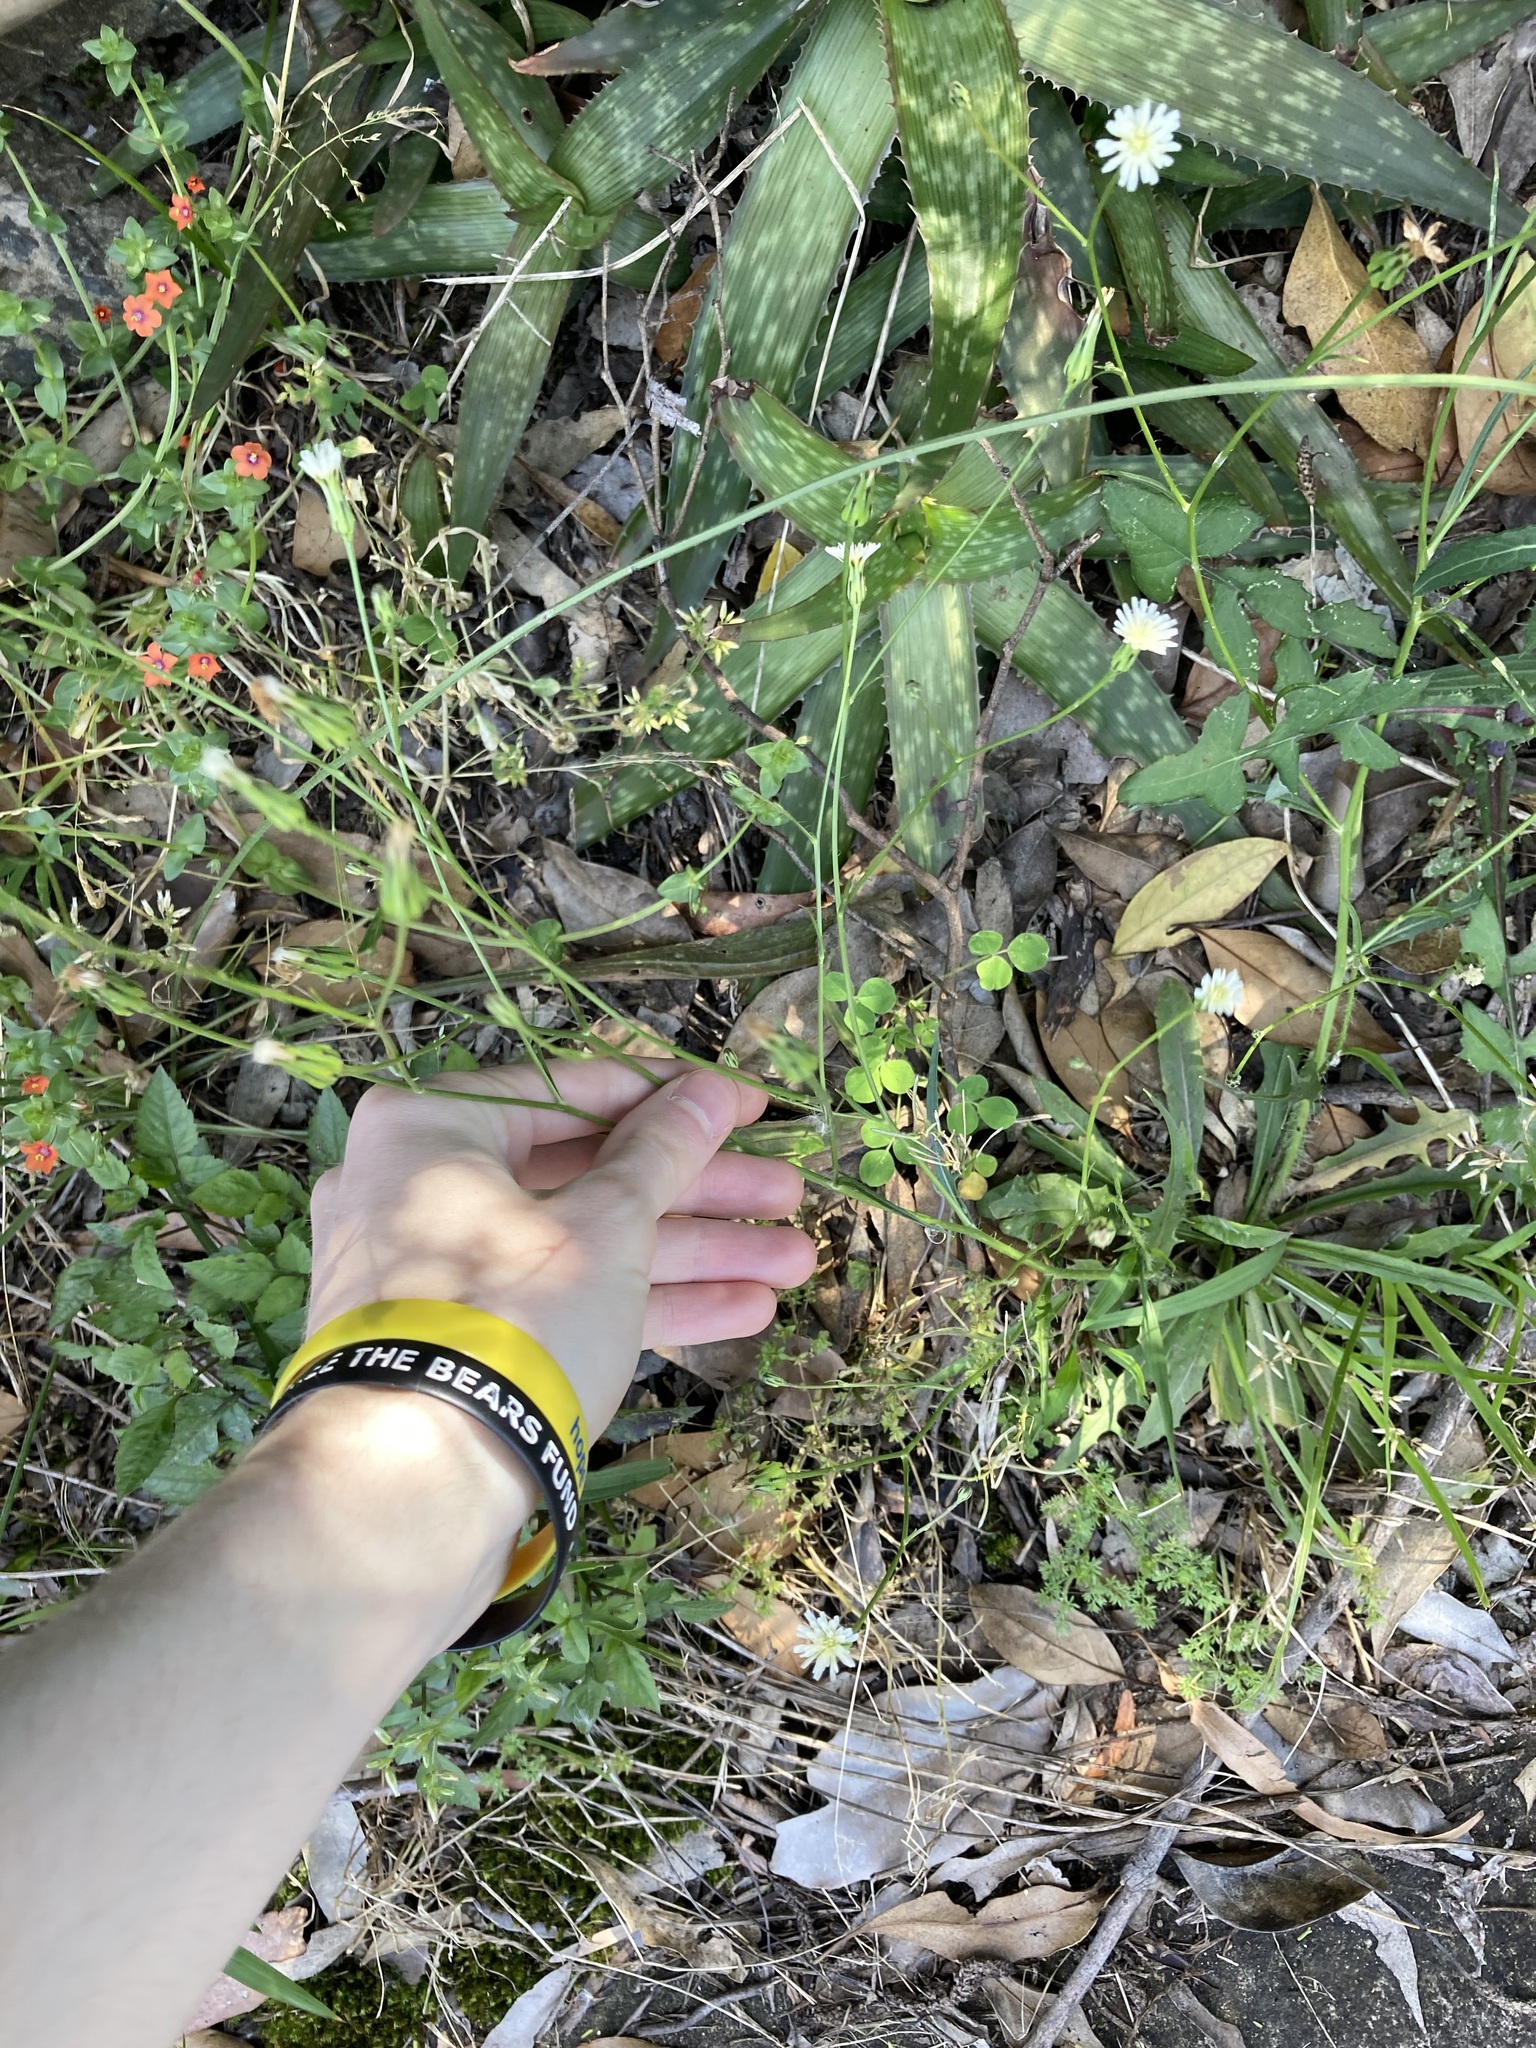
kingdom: Plantae
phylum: Tracheophyta
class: Magnoliopsida
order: Asterales
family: Asteraceae
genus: Hypochaeris
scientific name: Hypochaeris albiflora
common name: White flatweed
